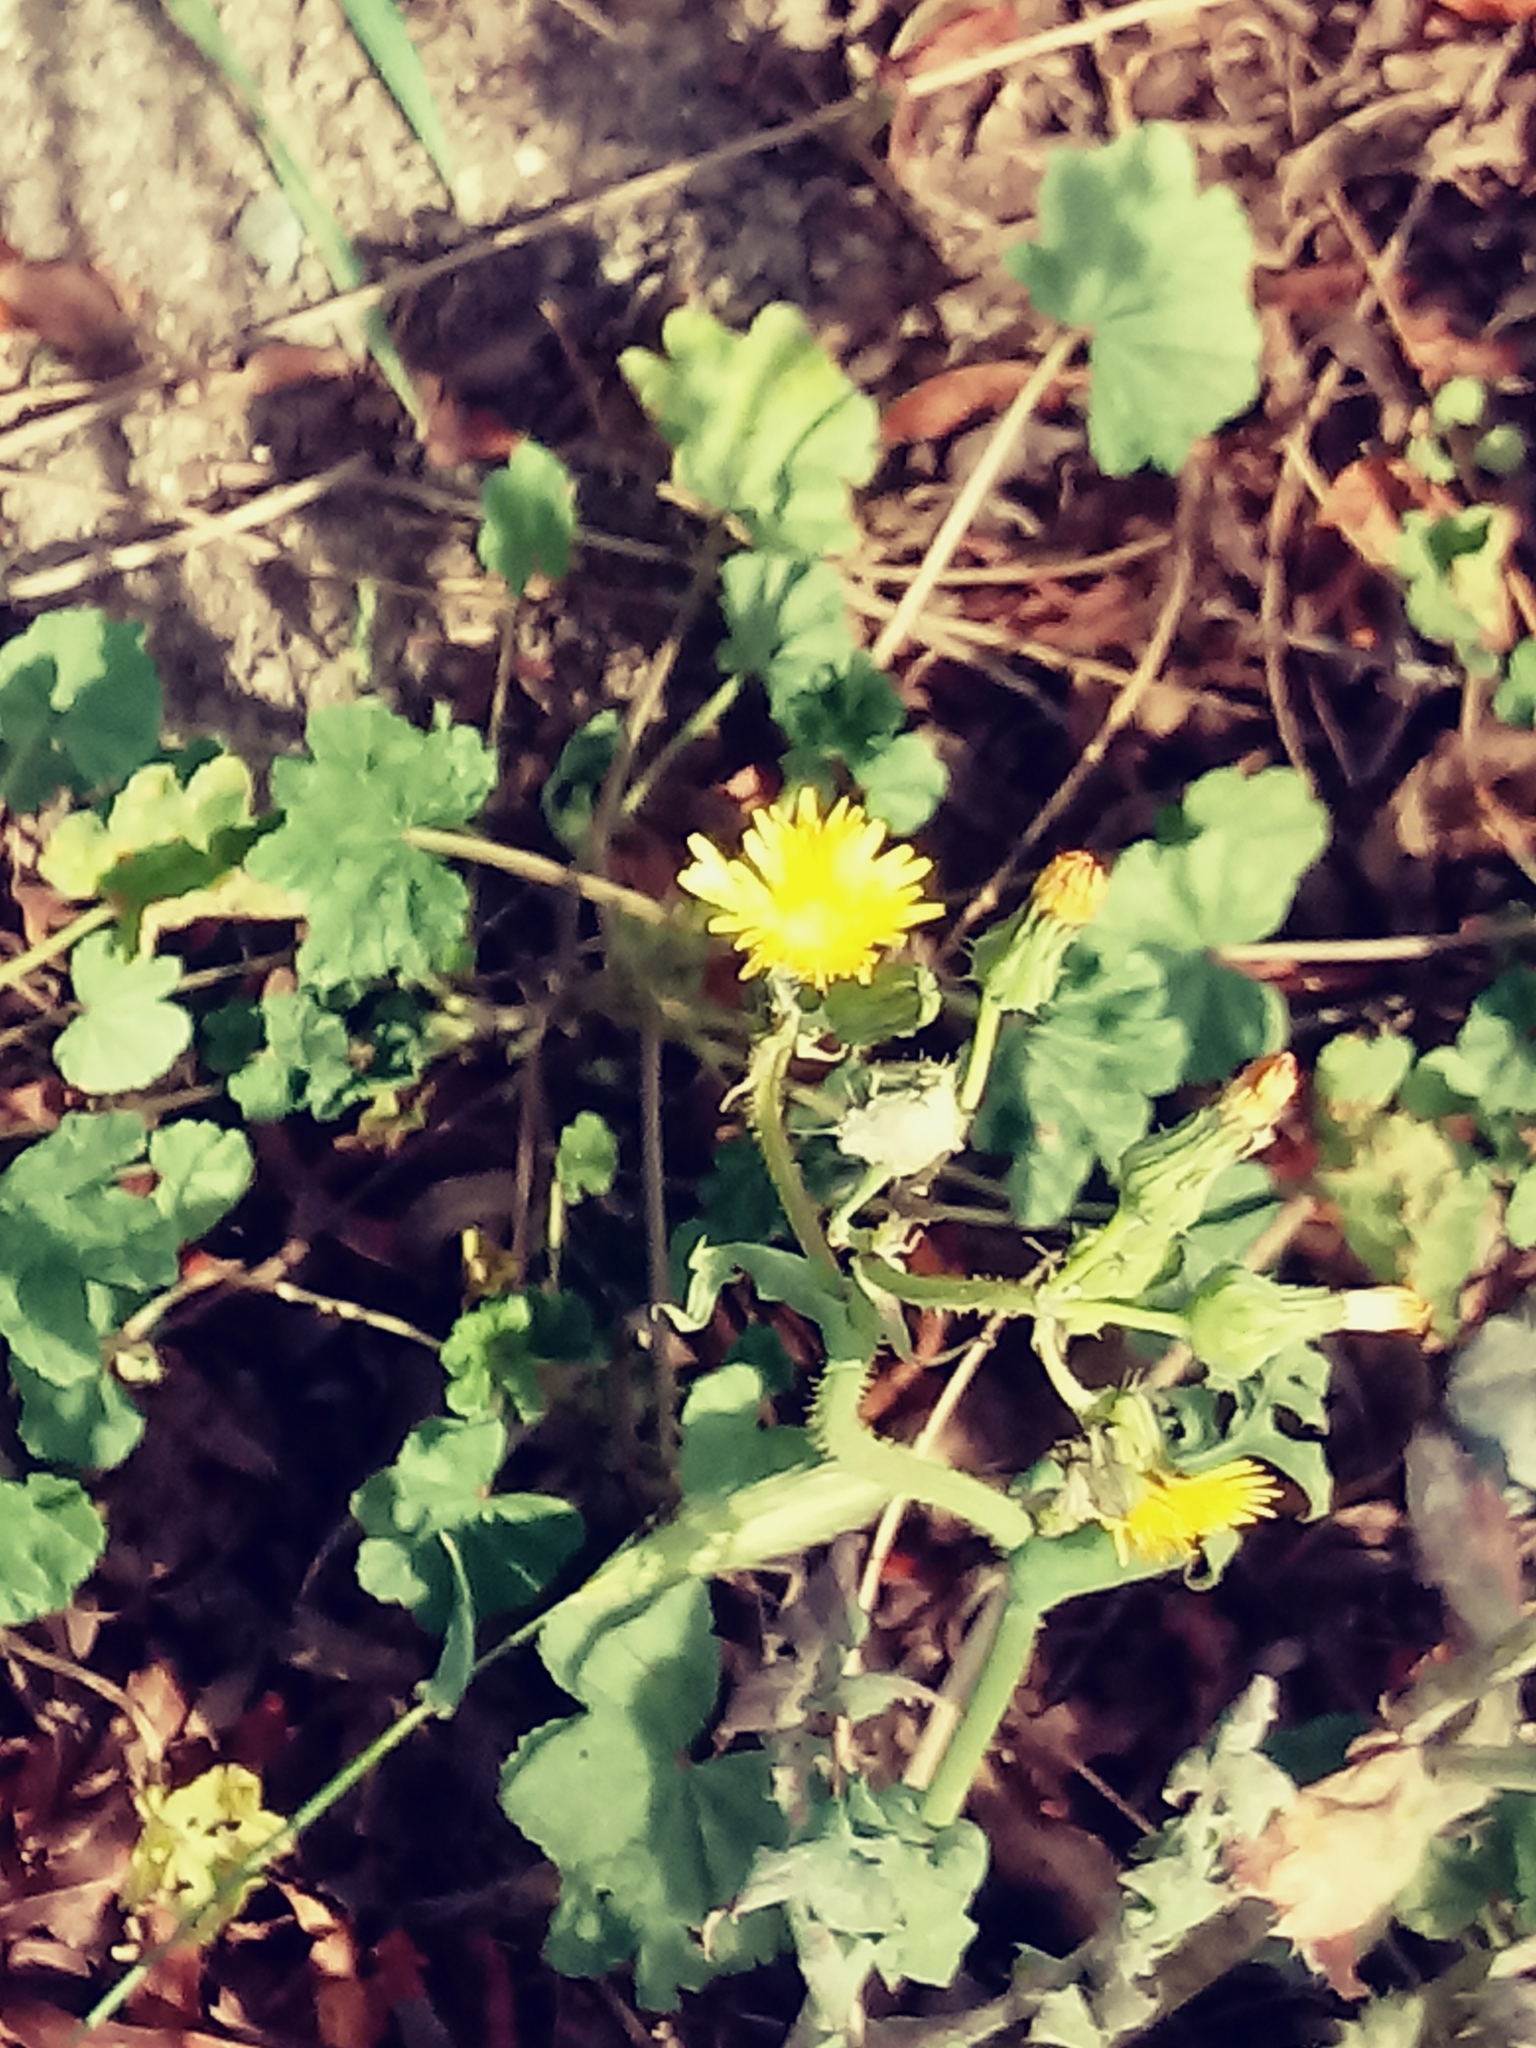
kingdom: Plantae
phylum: Tracheophyta
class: Magnoliopsida
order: Asterales
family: Asteraceae
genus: Sonchus
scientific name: Sonchus oleraceus
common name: Common sowthistle
